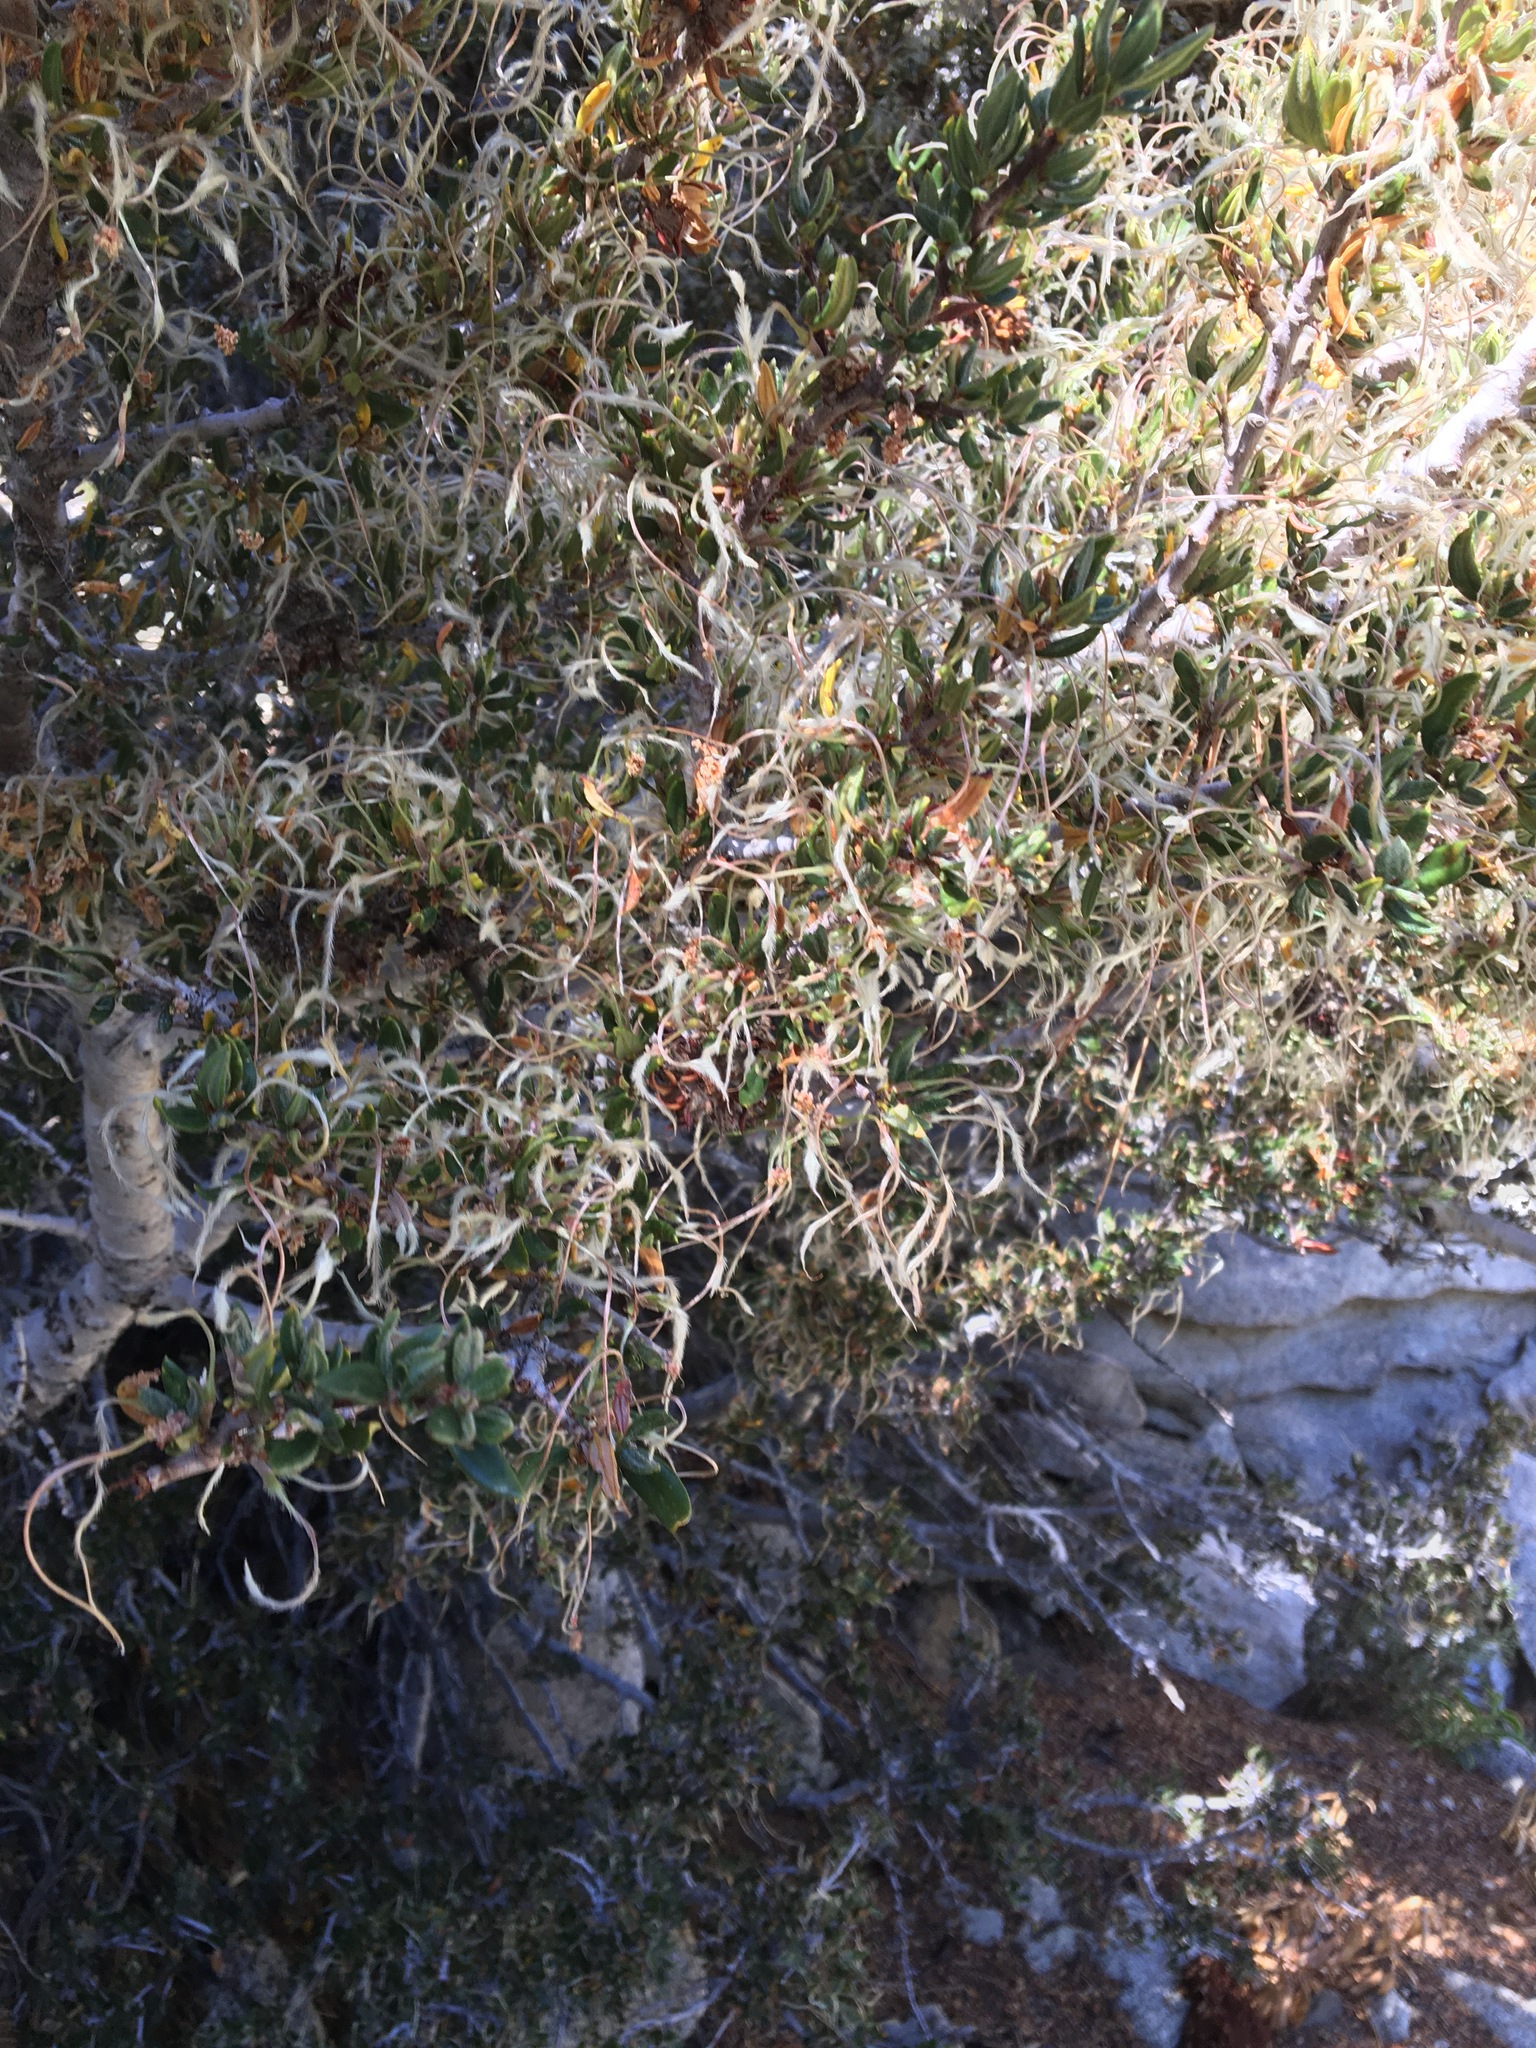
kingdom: Plantae
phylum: Tracheophyta
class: Magnoliopsida
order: Rosales
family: Rosaceae
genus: Cercocarpus
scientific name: Cercocarpus ledifolius
